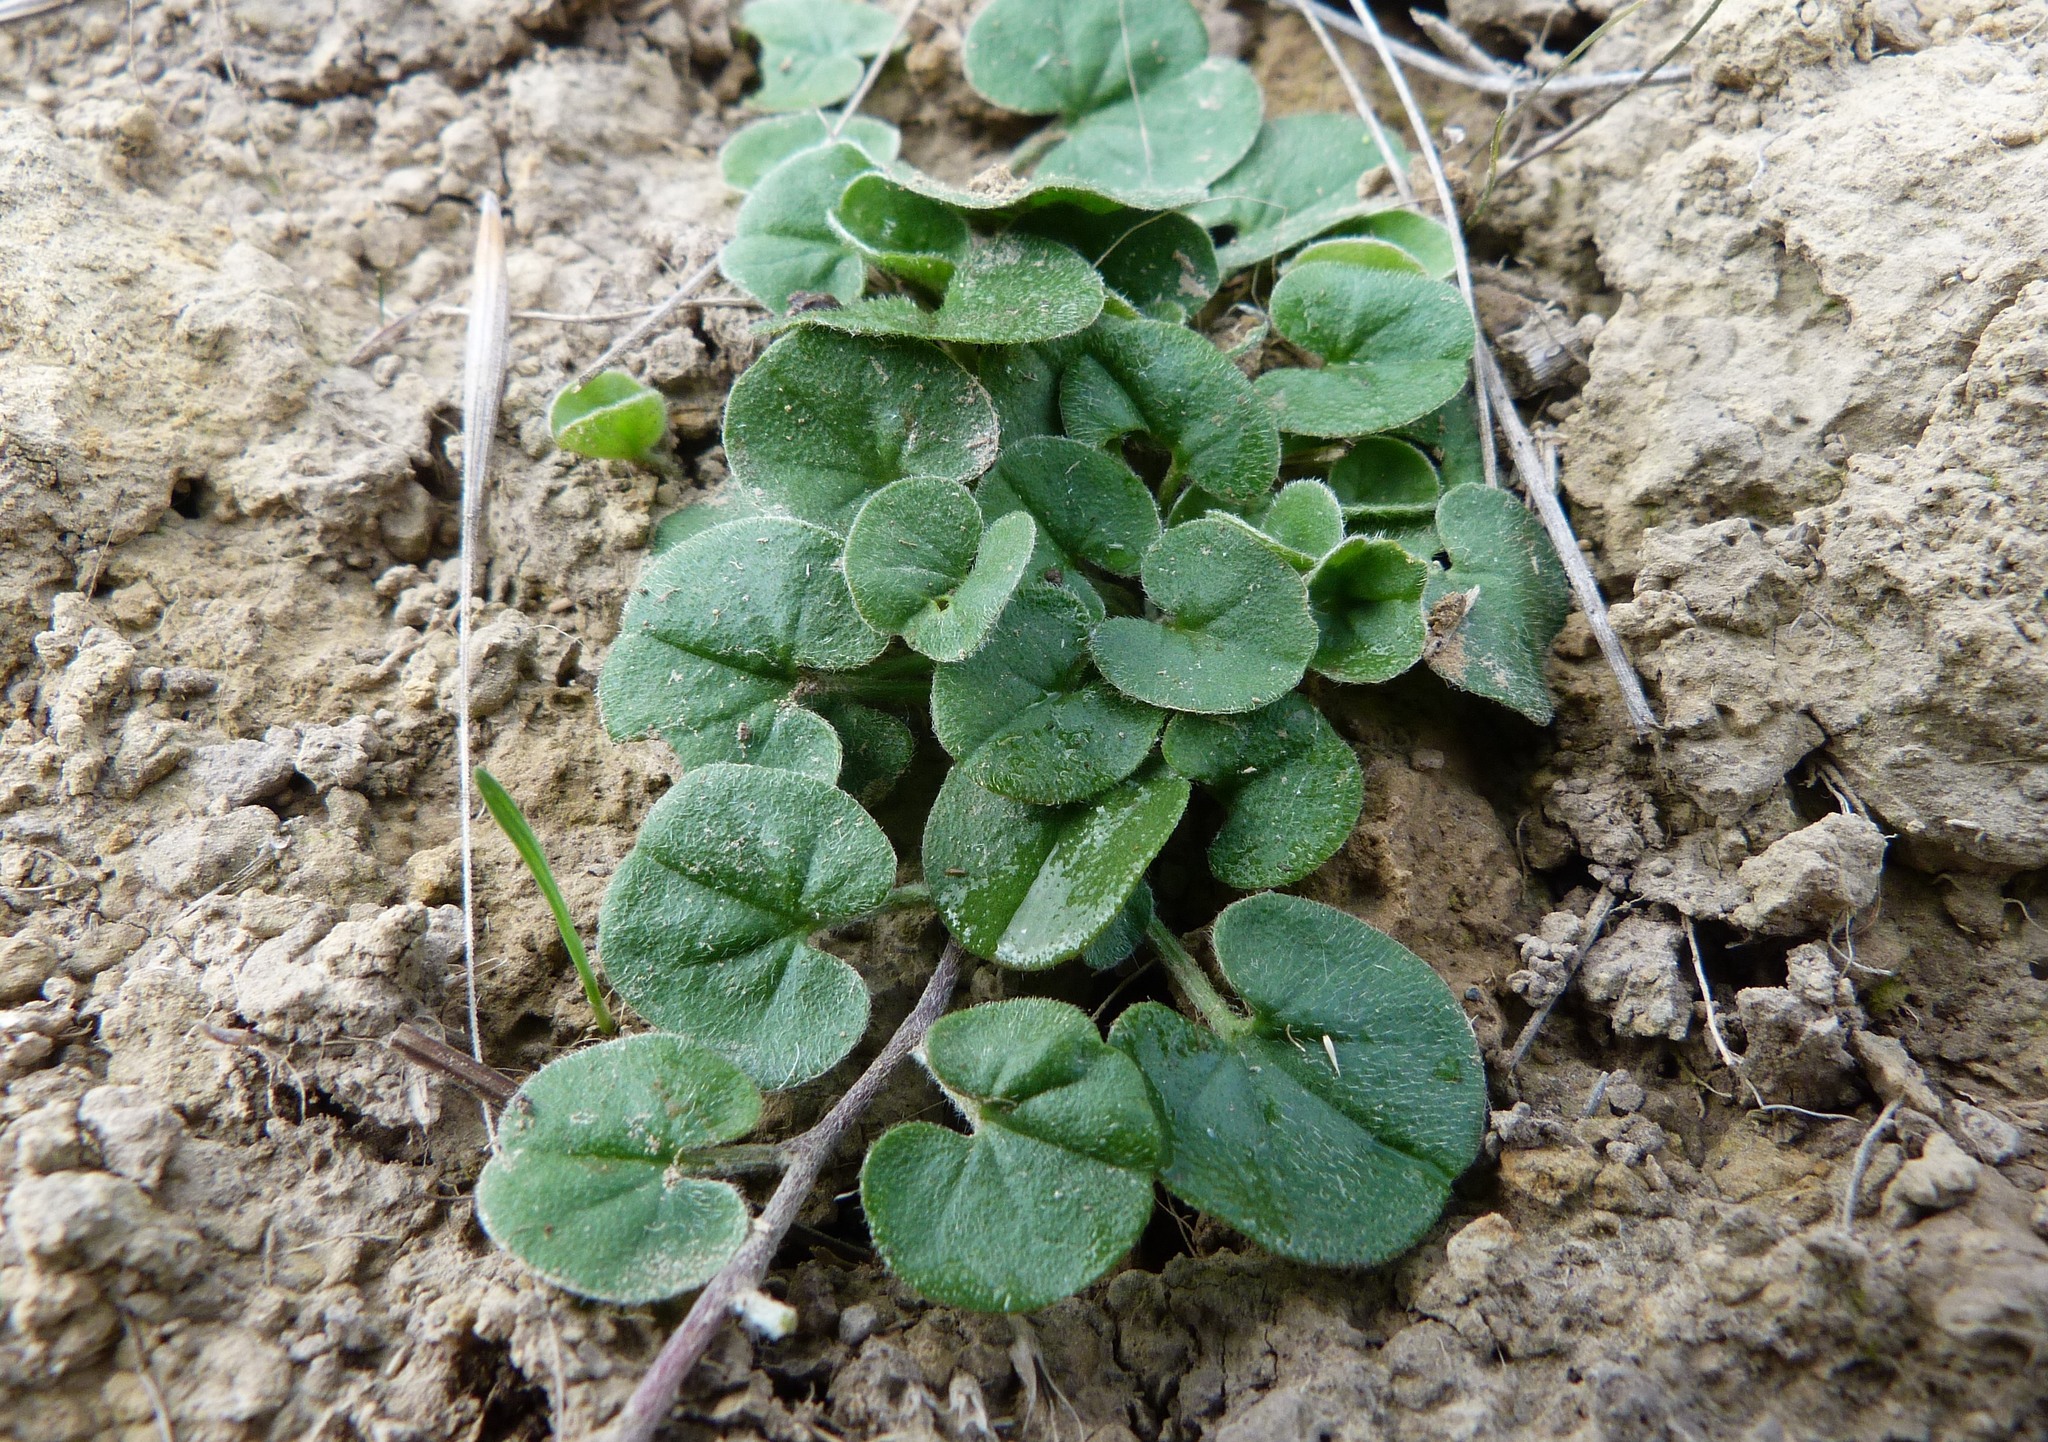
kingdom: Plantae
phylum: Tracheophyta
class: Magnoliopsida
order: Solanales
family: Convolvulaceae
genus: Dichondra
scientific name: Dichondra repens
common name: Kidneyweed
